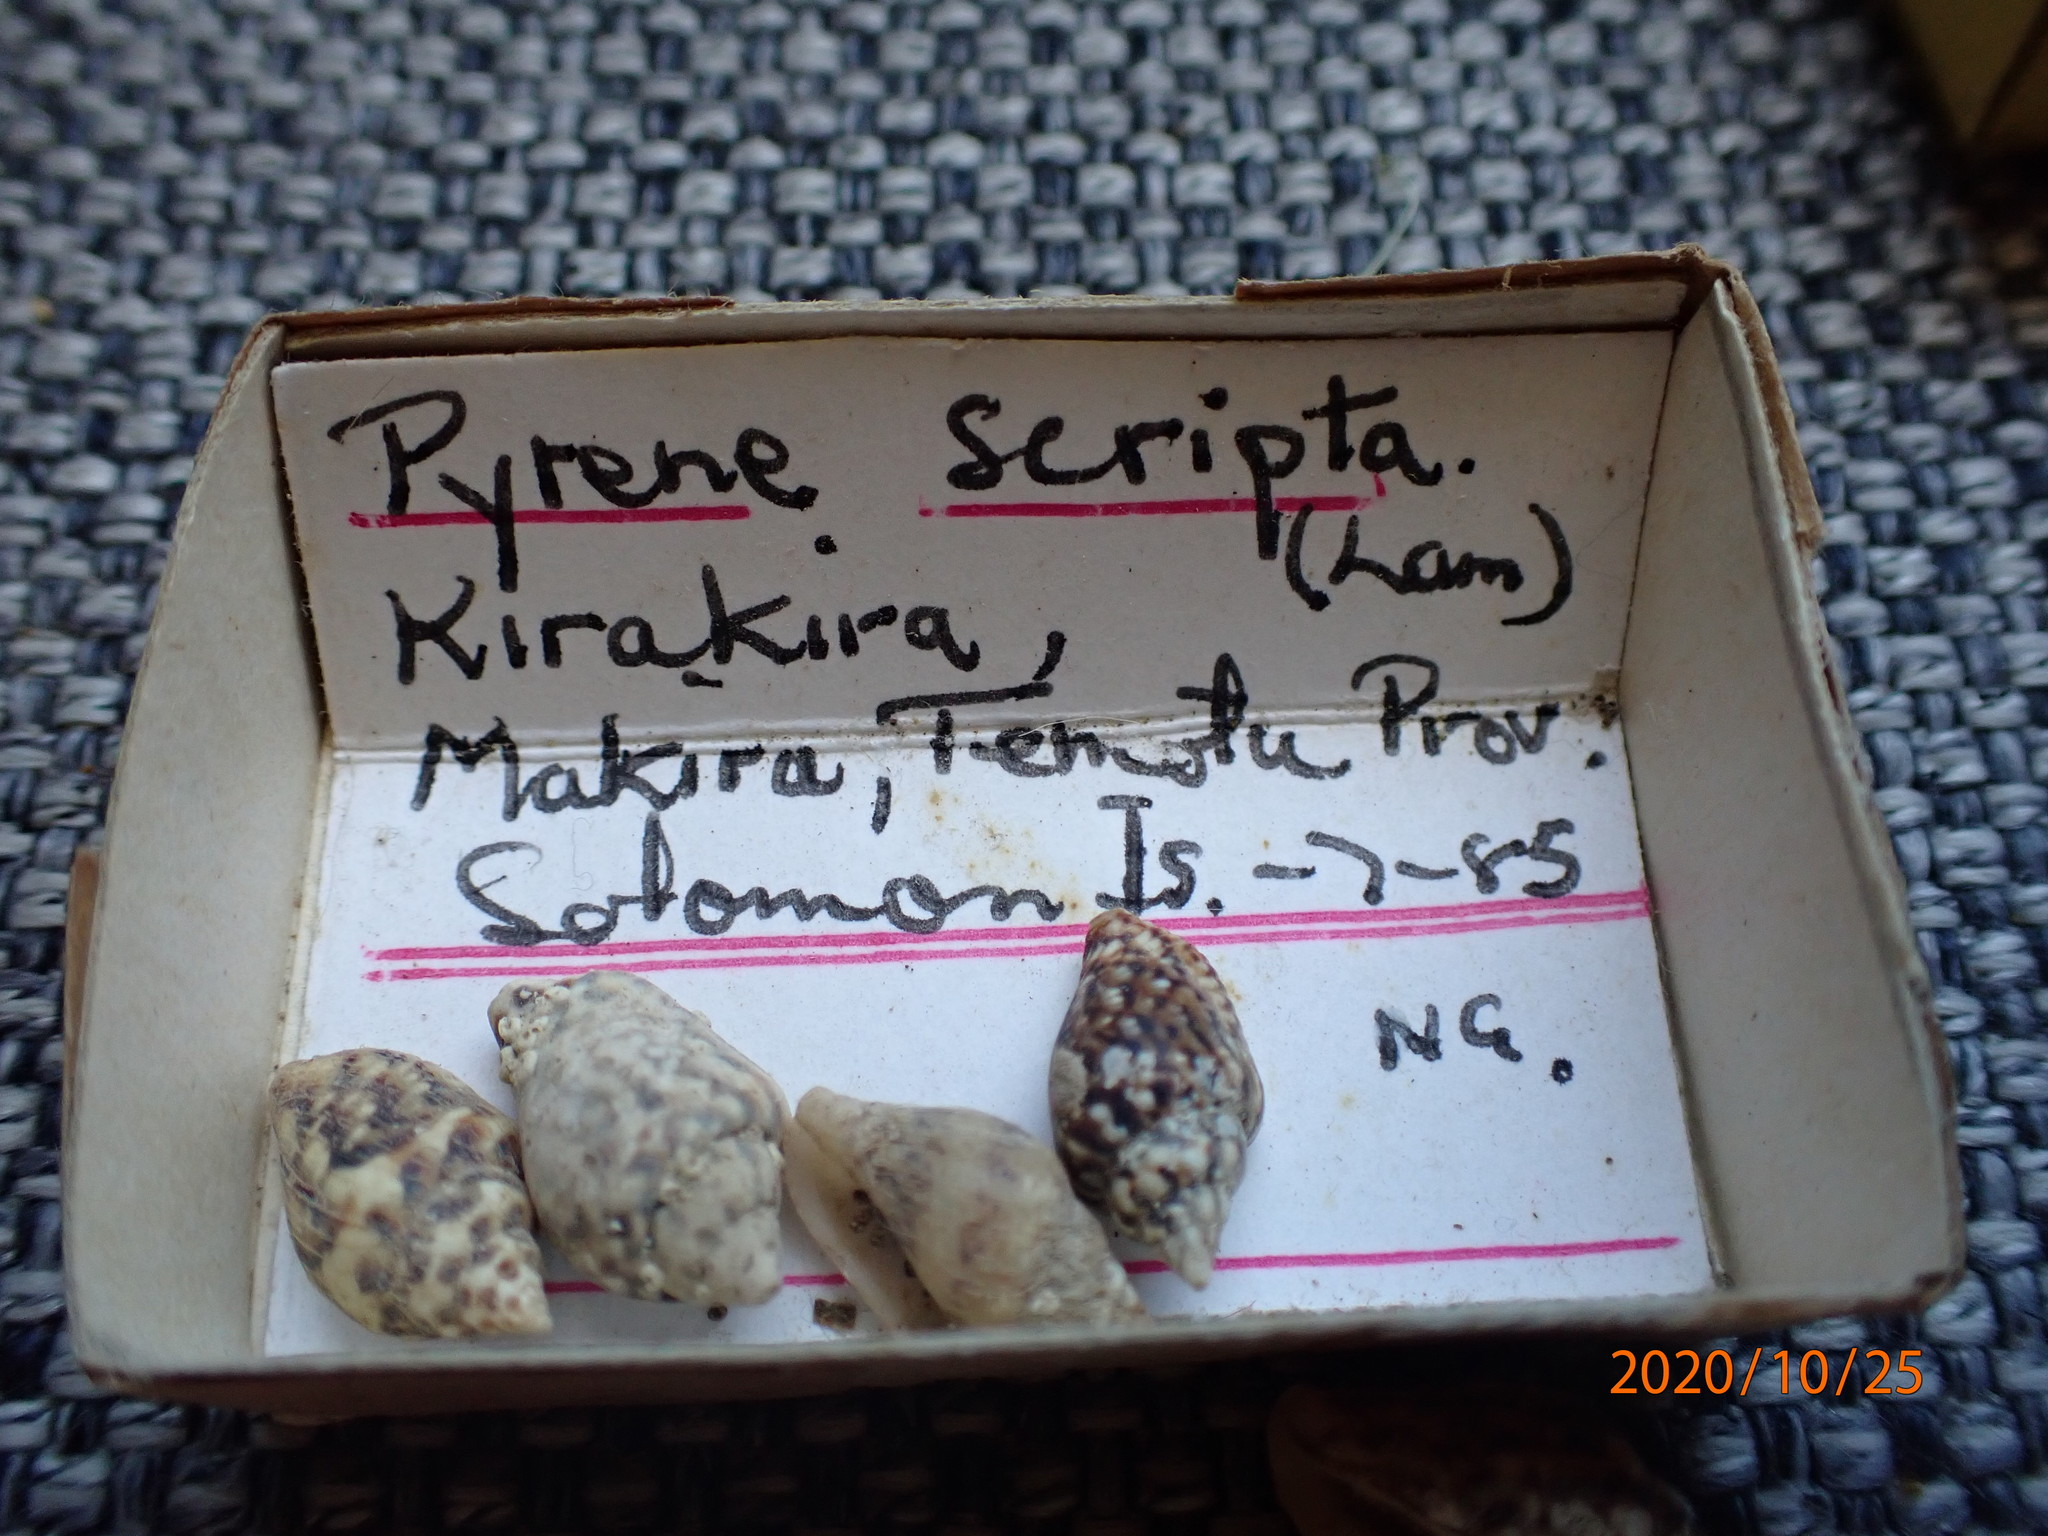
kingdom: Animalia
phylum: Mollusca
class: Gastropoda
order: Neogastropoda
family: Columbellidae
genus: Mitrella
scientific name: Mitrella scripta
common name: Music dovesnail
